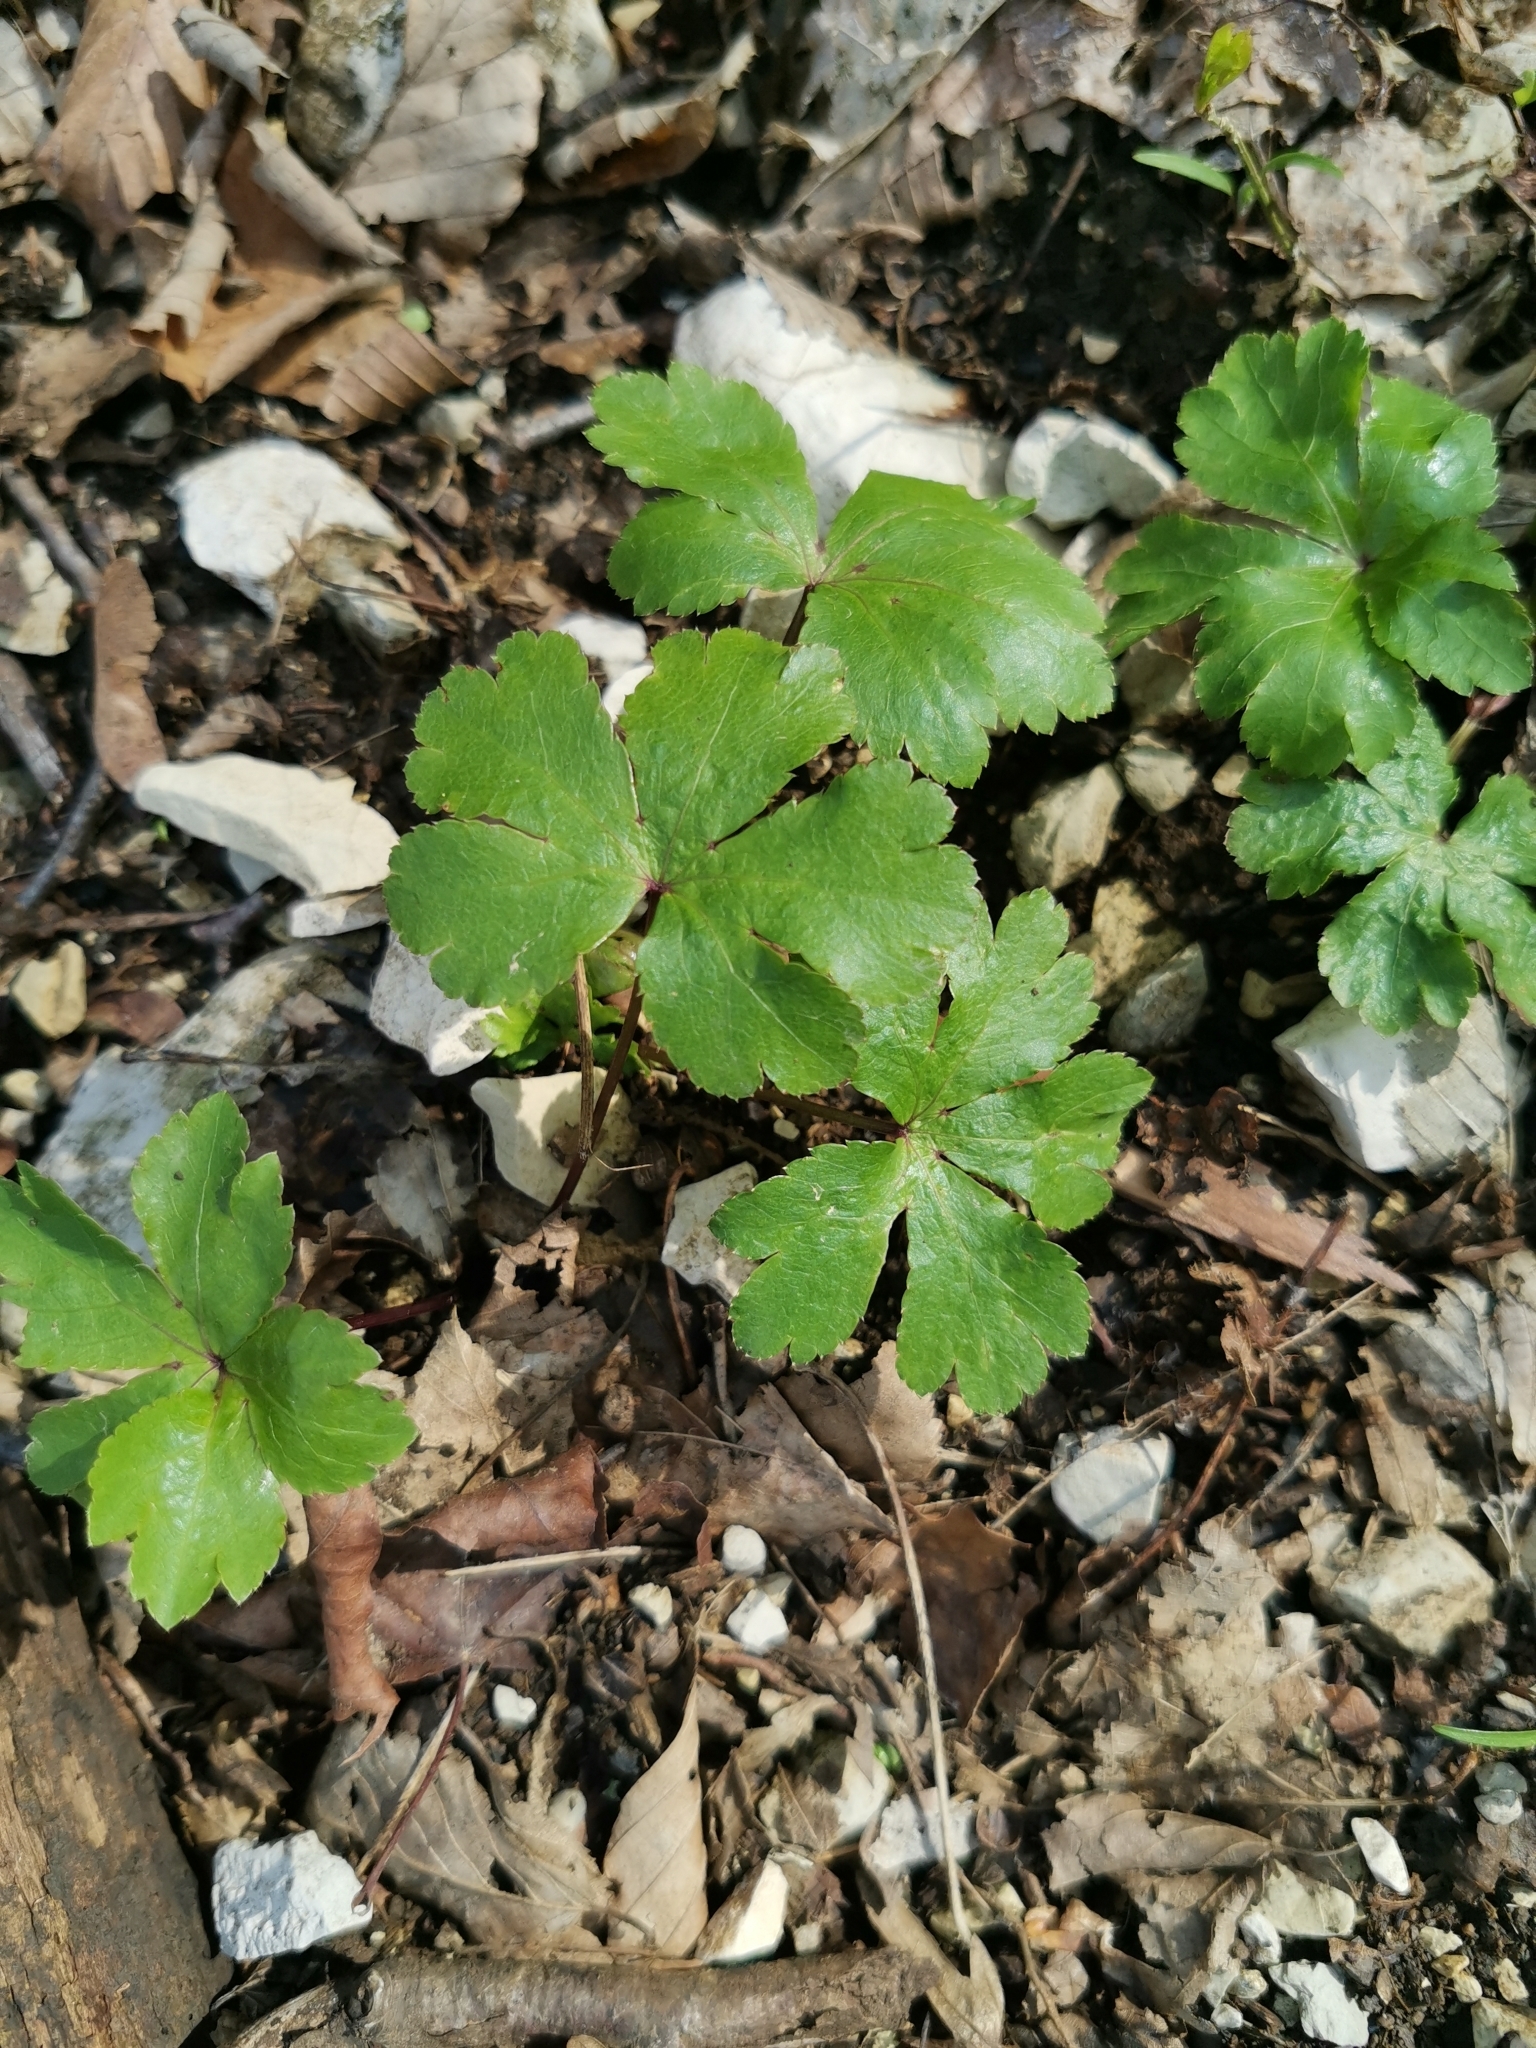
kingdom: Plantae
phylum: Tracheophyta
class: Magnoliopsida
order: Apiales
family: Apiaceae
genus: Sanicula
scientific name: Sanicula europaea
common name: Sanicle
